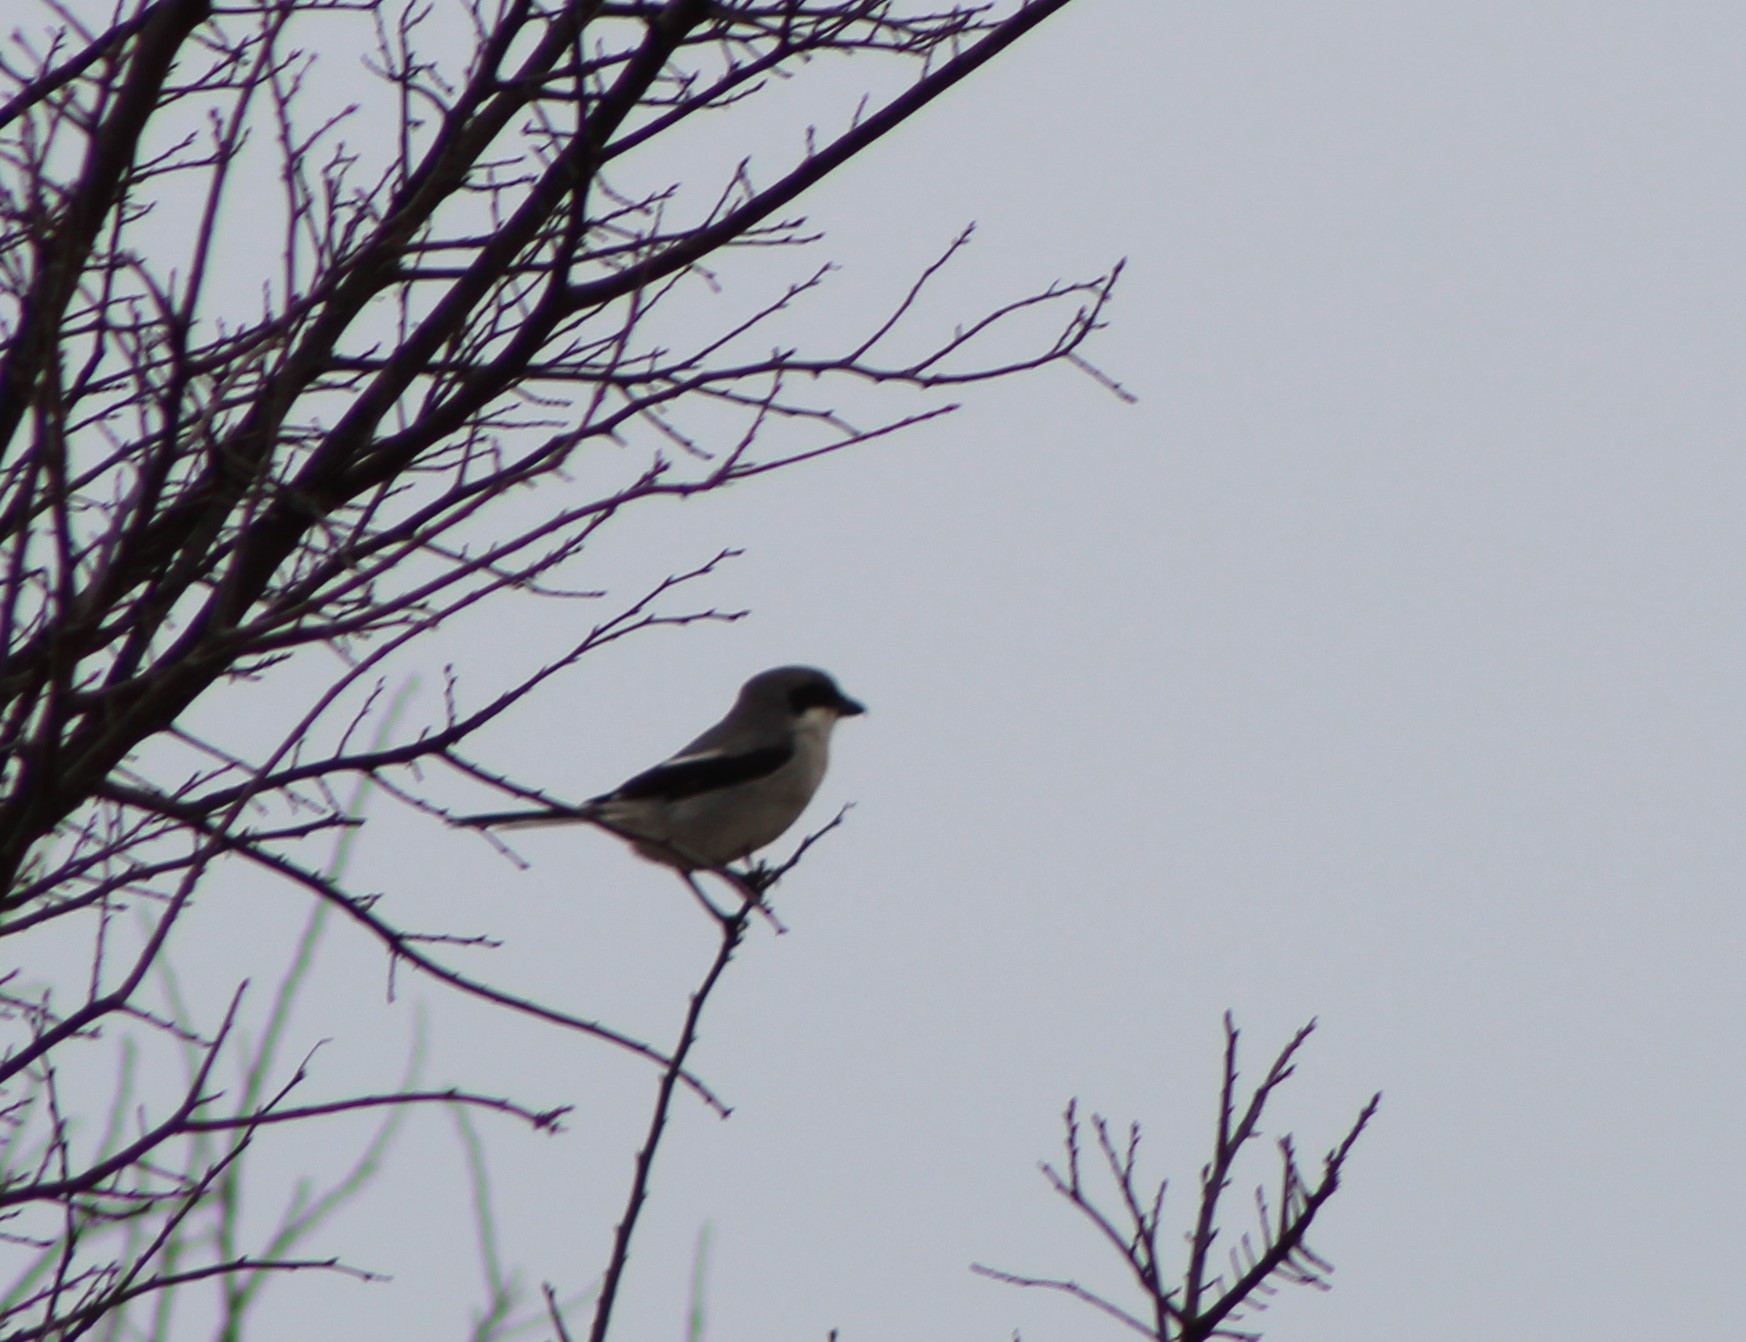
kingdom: Animalia
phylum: Chordata
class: Aves
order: Passeriformes
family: Laniidae
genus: Lanius
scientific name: Lanius ludovicianus
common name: Loggerhead shrike
